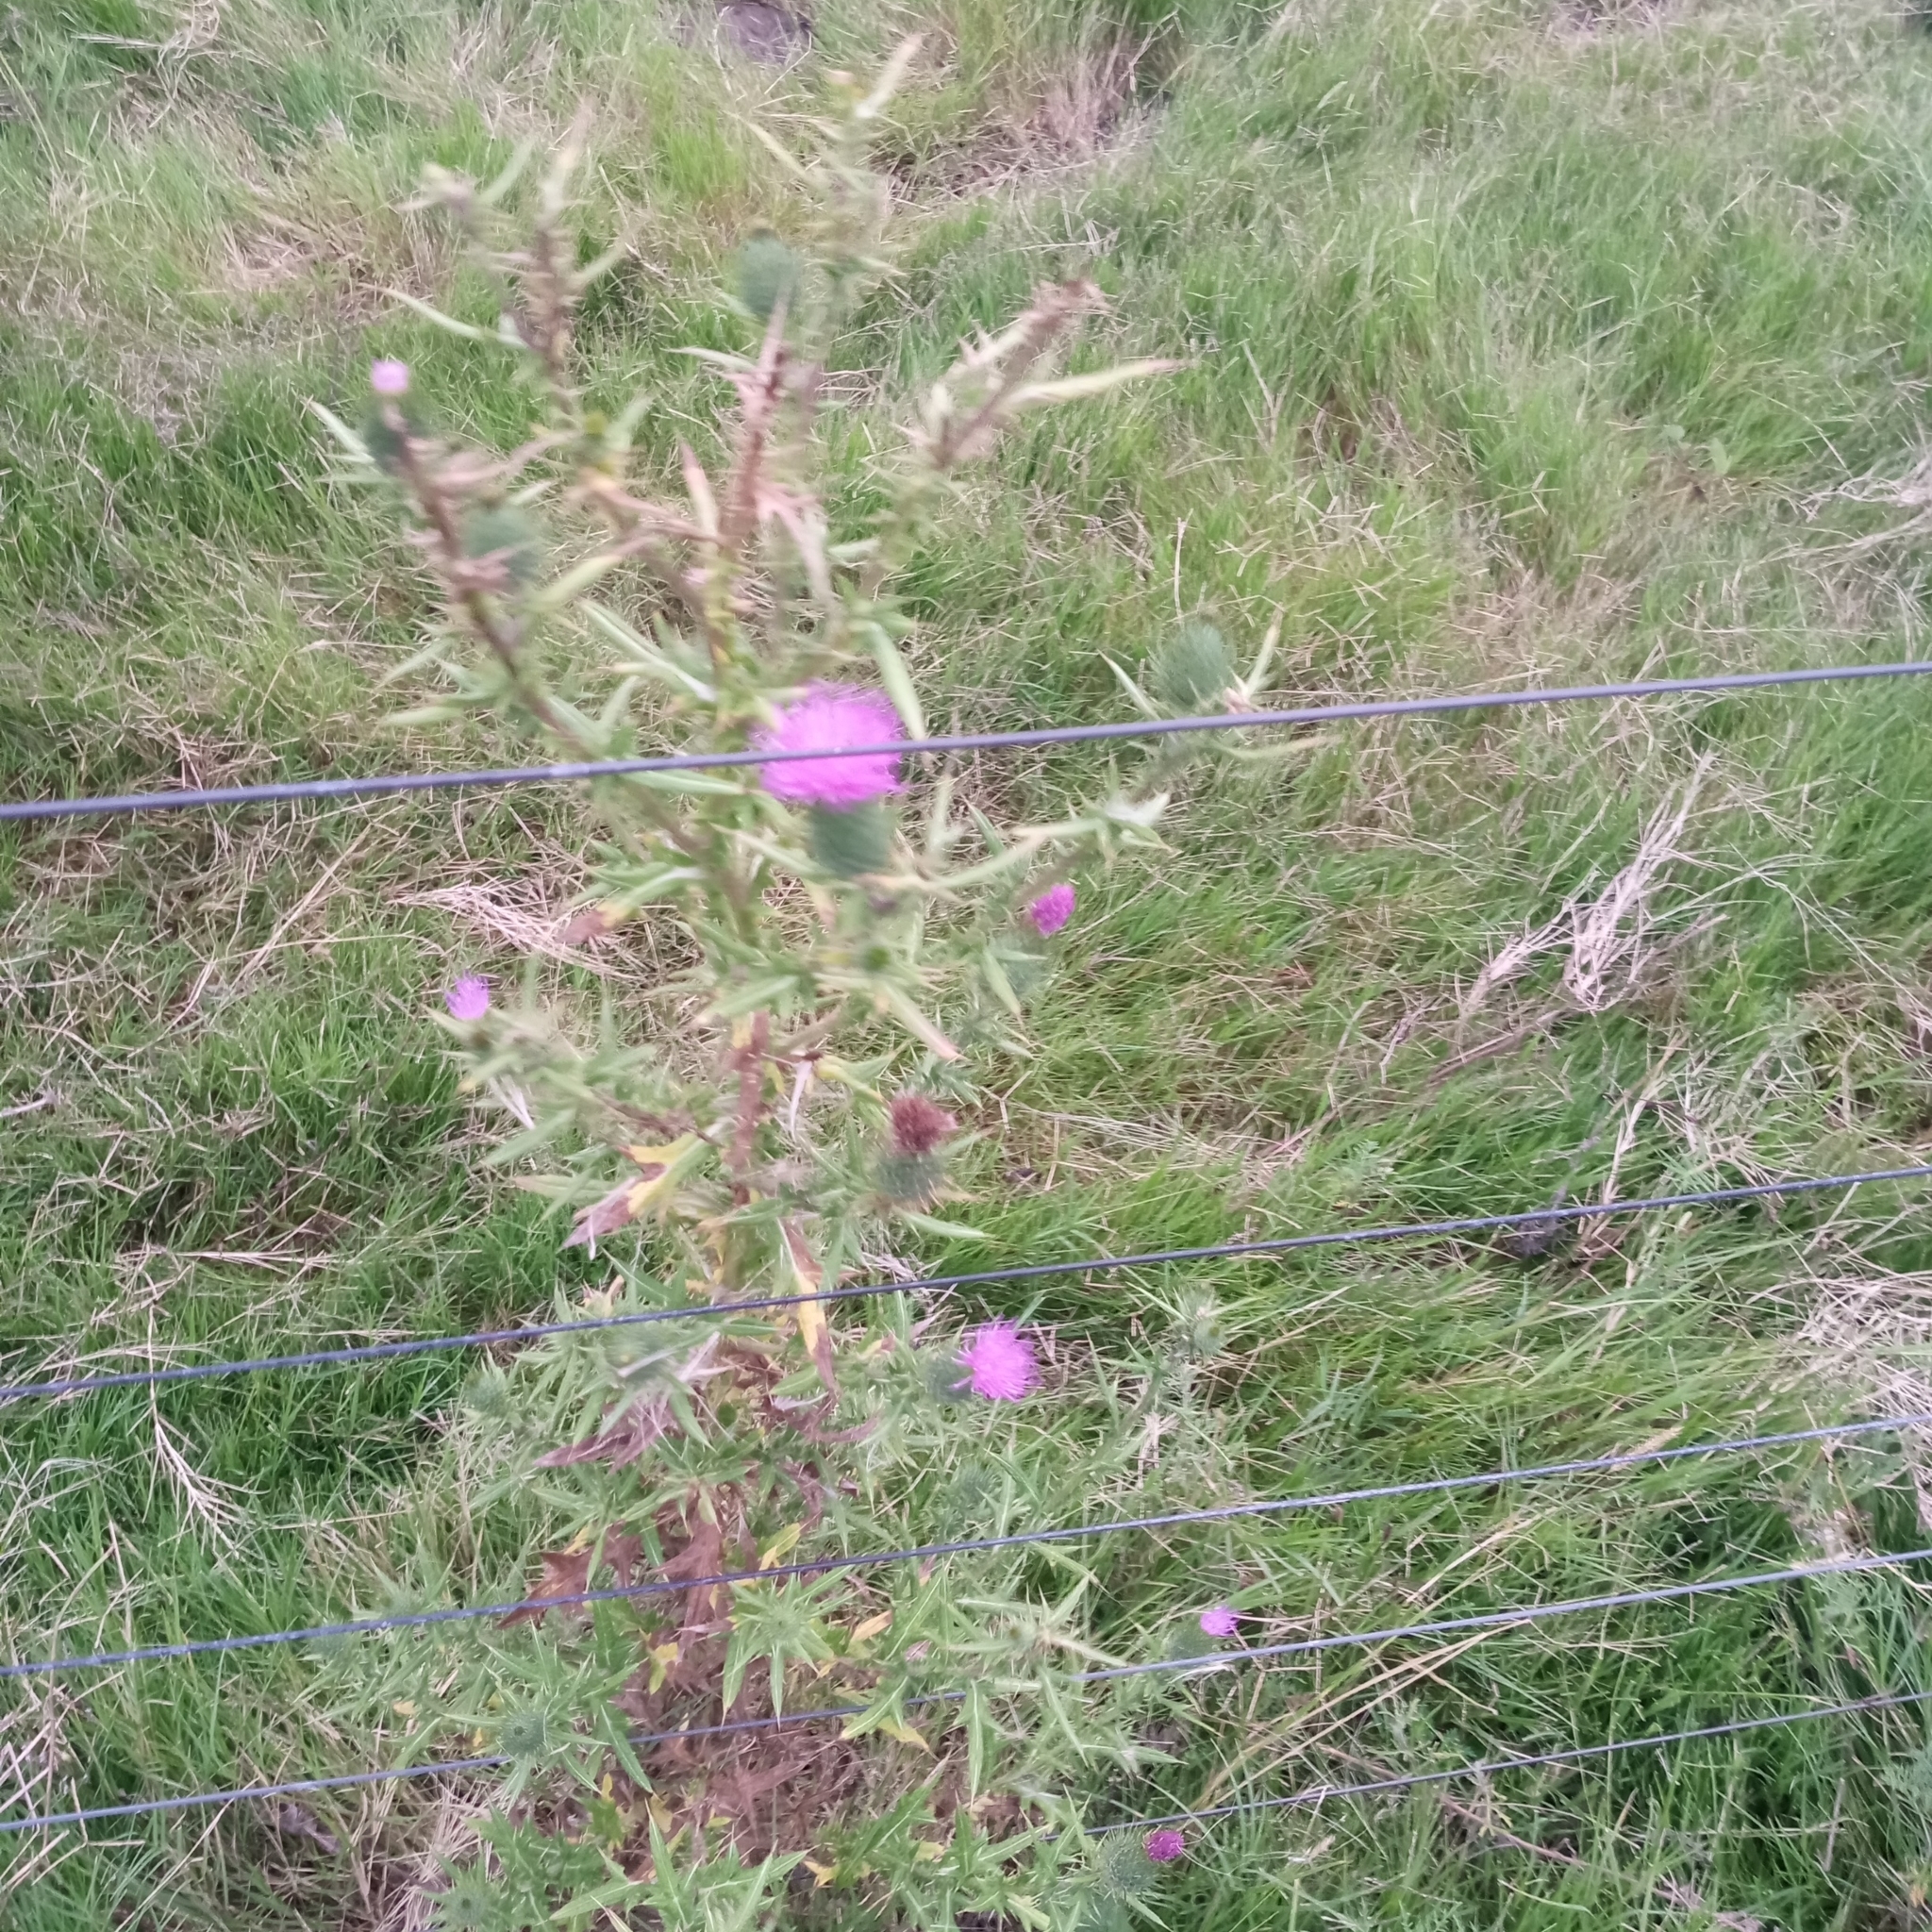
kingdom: Plantae
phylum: Tracheophyta
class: Magnoliopsida
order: Asterales
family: Asteraceae
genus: Cirsium
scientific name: Cirsium vulgare
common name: Bull thistle
